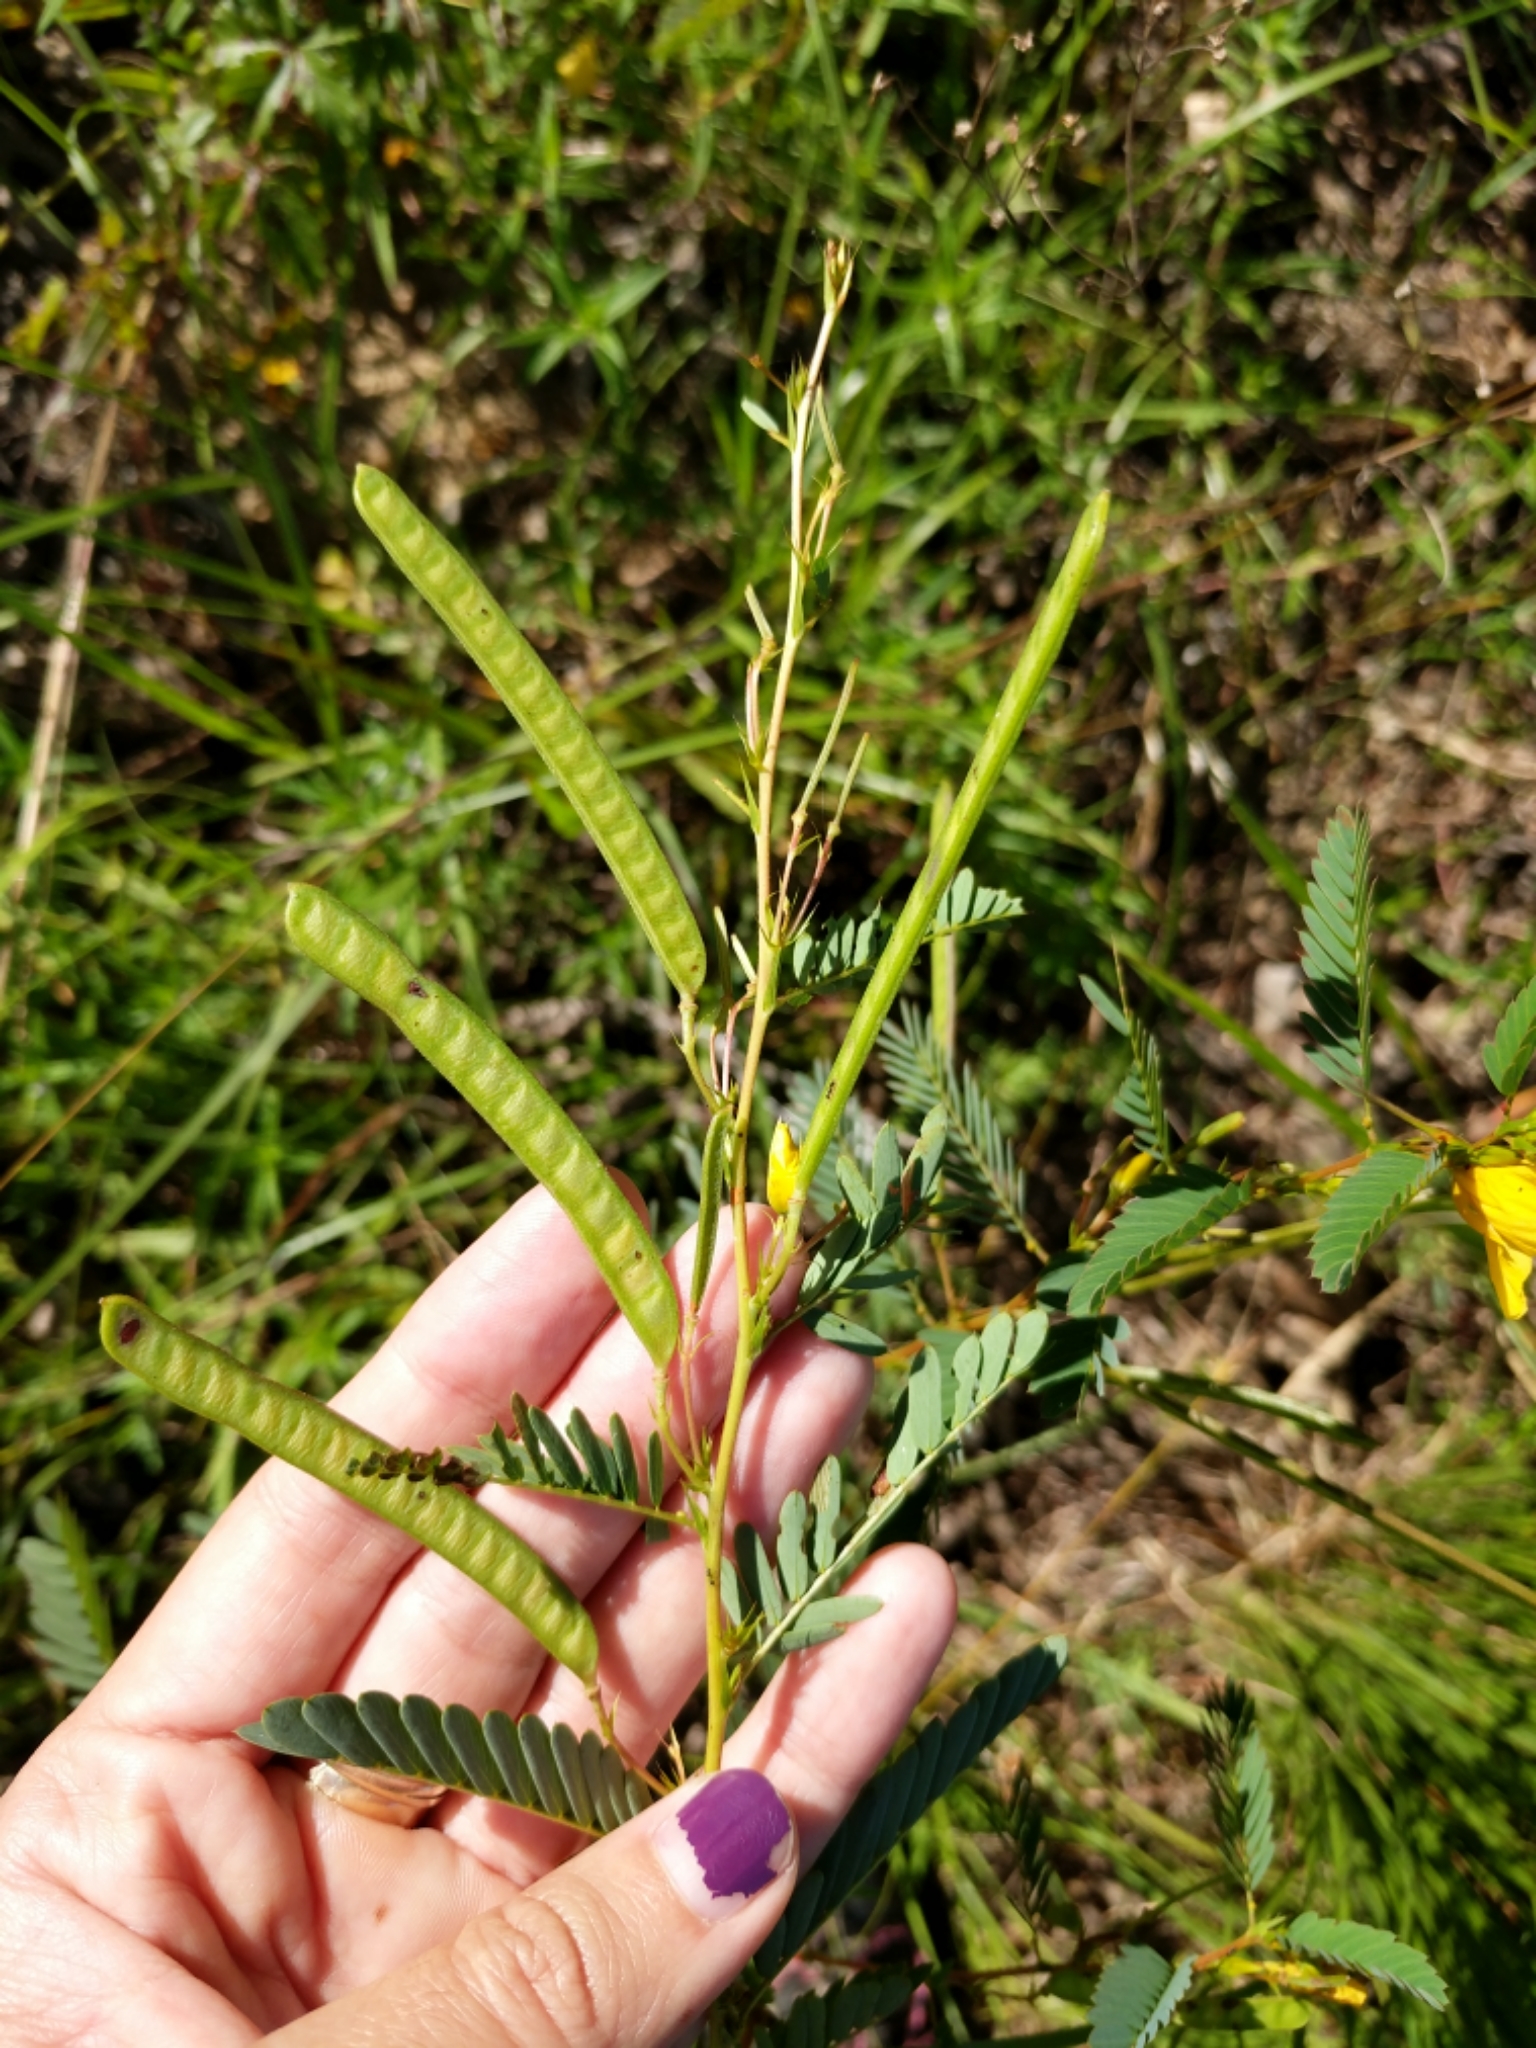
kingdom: Plantae
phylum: Tracheophyta
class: Magnoliopsida
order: Fabales
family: Fabaceae
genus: Chamaecrista
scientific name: Chamaecrista fasciculata
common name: Golden cassia
